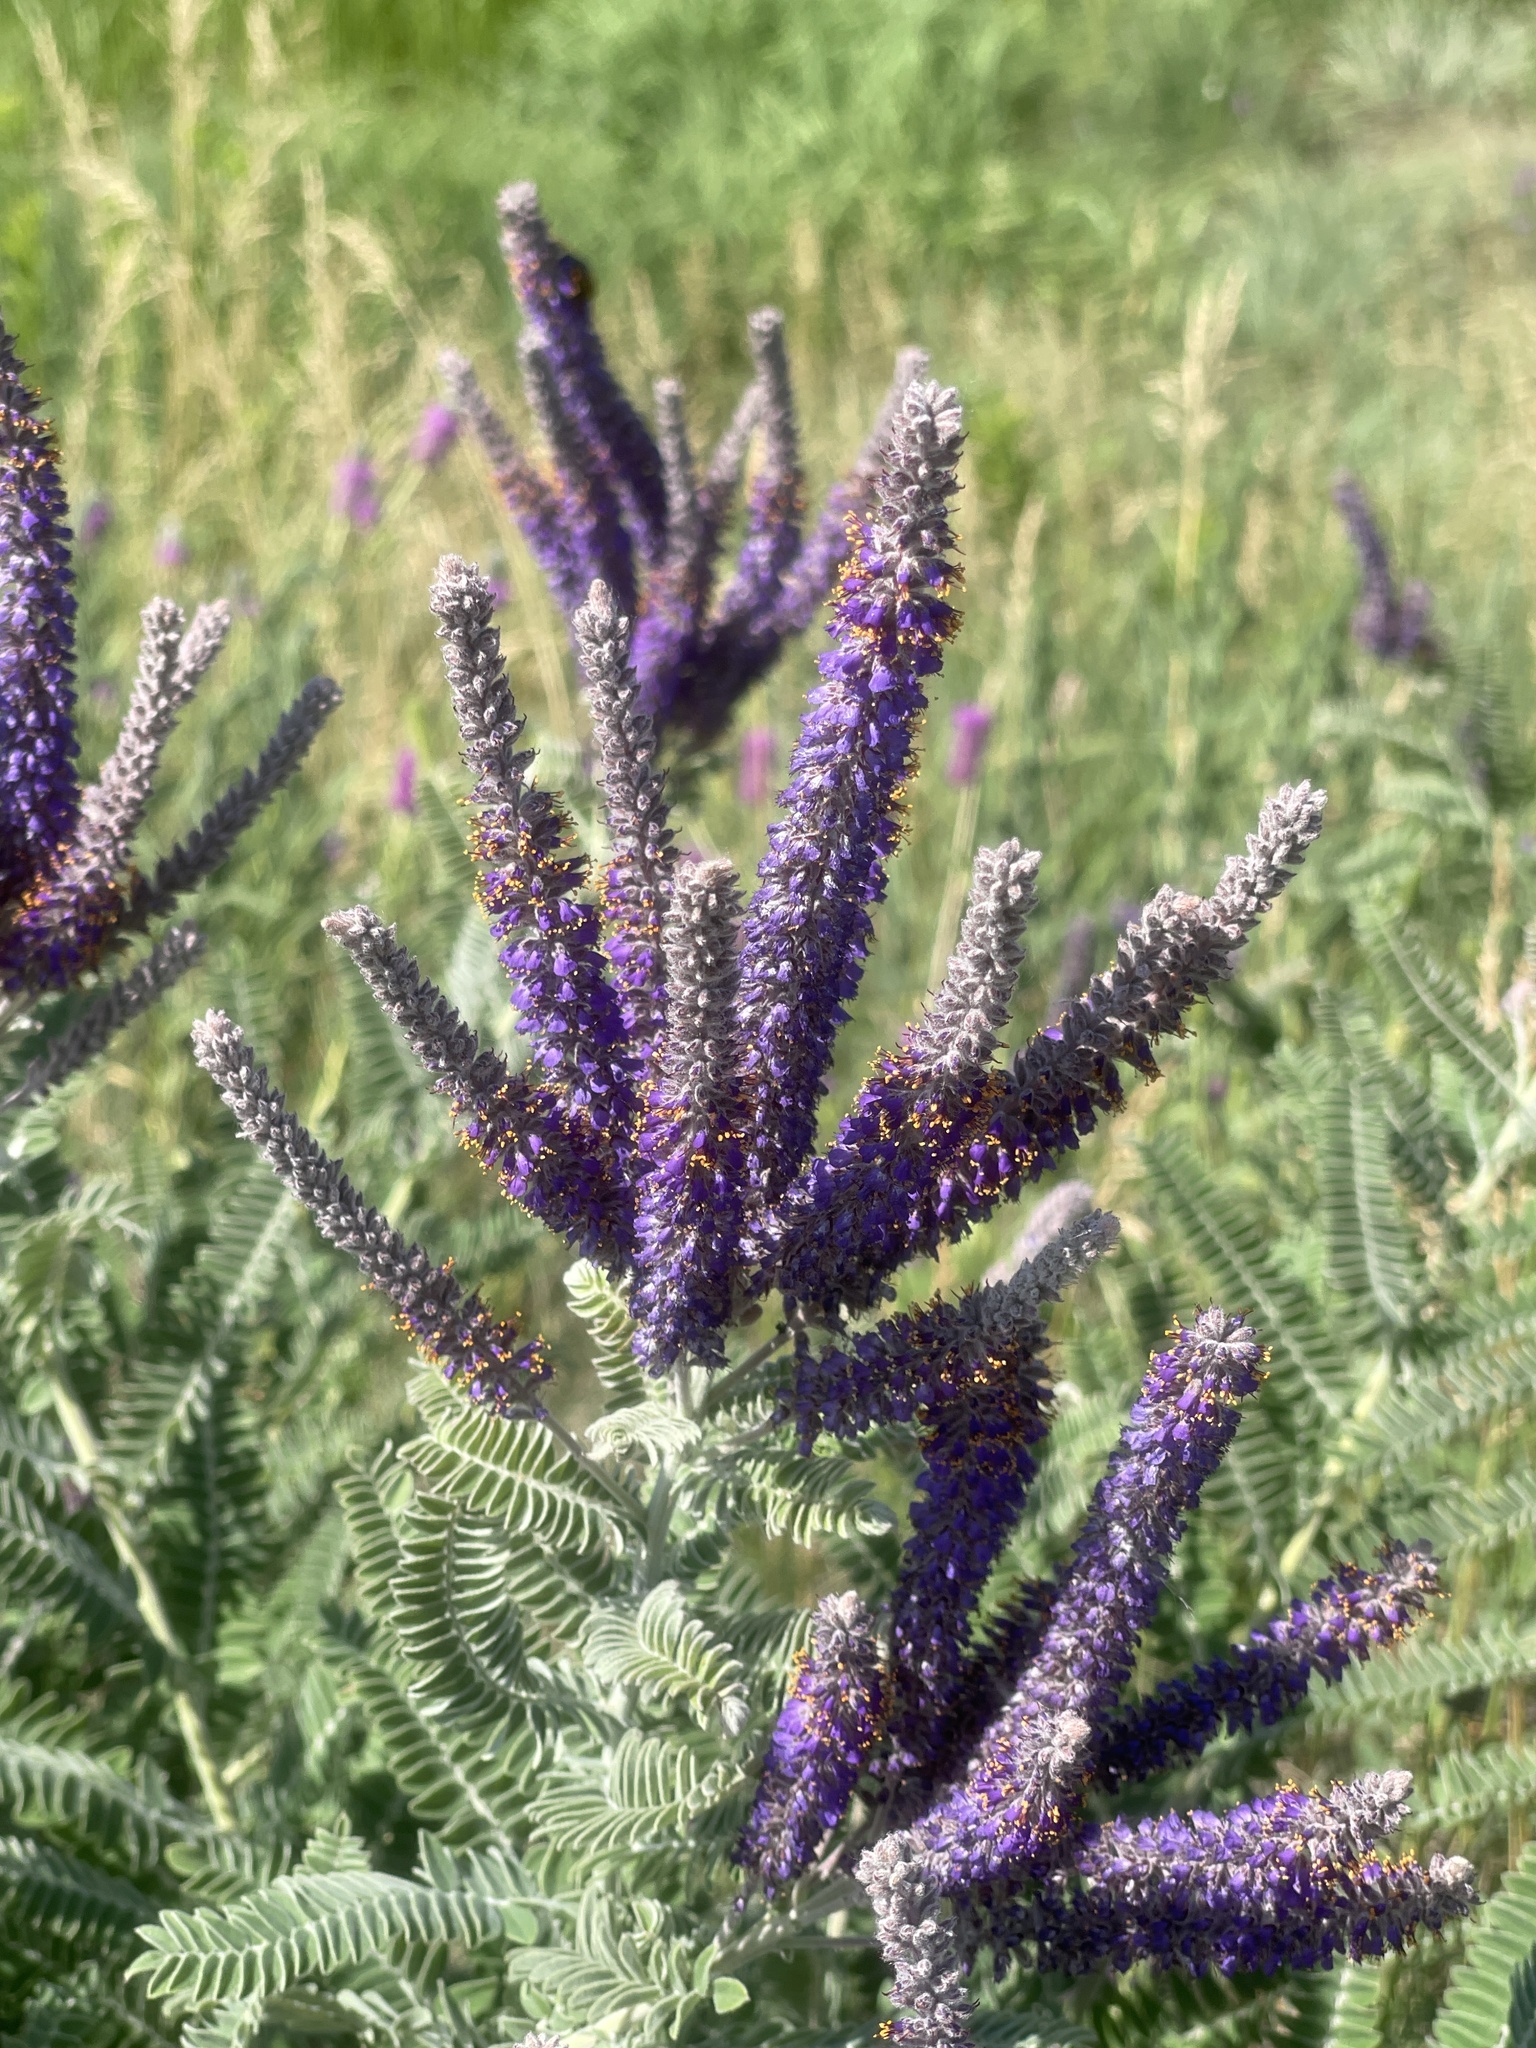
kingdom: Plantae
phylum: Tracheophyta
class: Magnoliopsida
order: Fabales
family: Fabaceae
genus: Amorpha
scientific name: Amorpha canescens
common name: Leadplant
